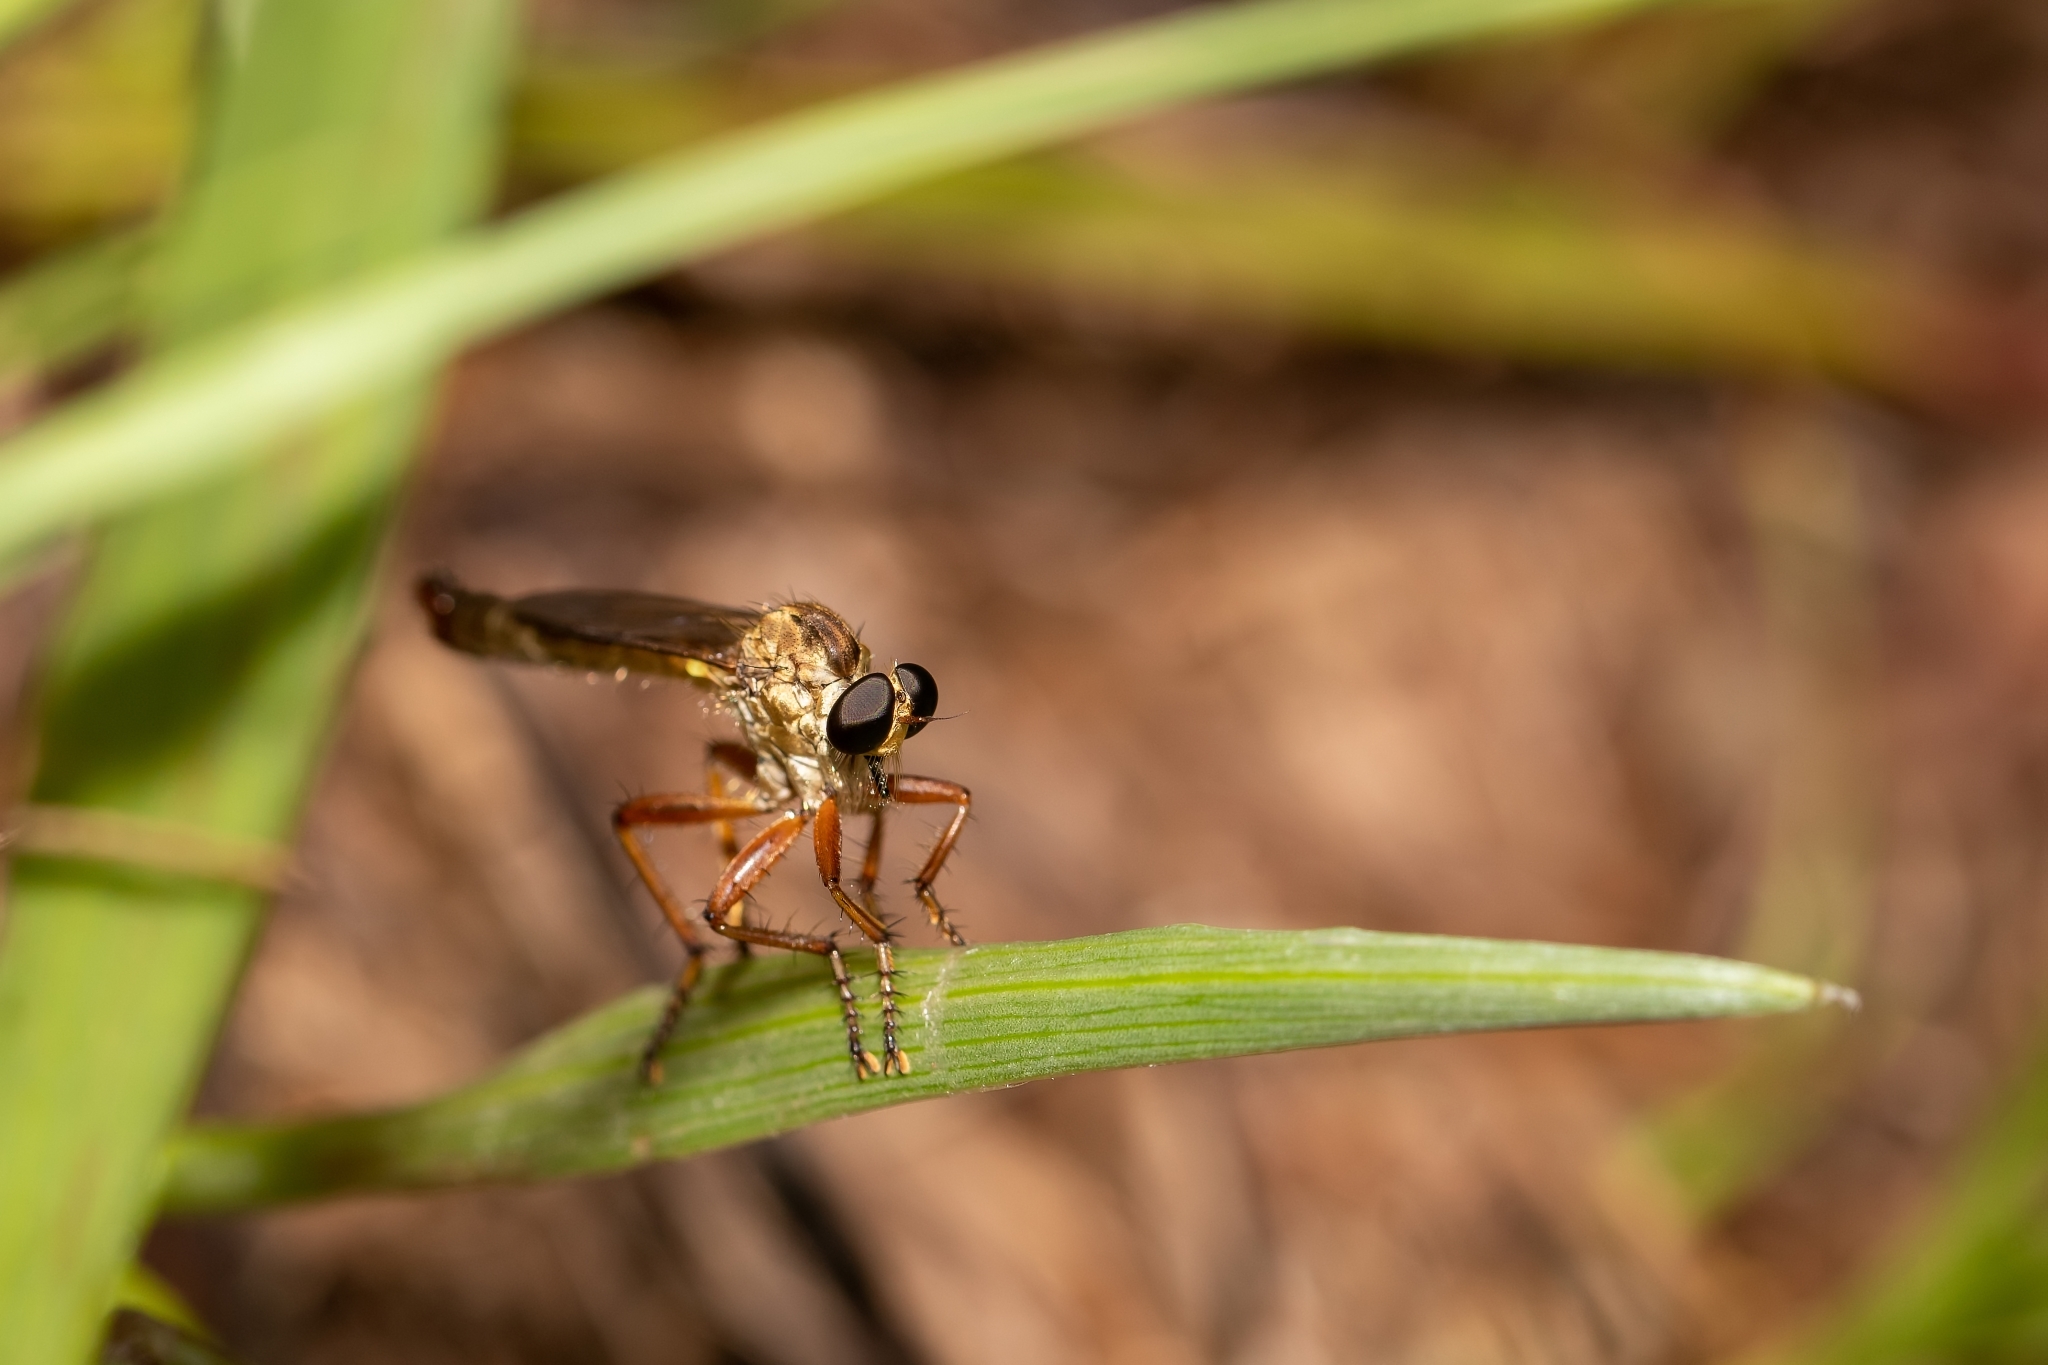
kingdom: Animalia
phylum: Arthropoda
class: Insecta
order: Diptera
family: Asilidae
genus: Polacantha
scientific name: Polacantha gracilis
